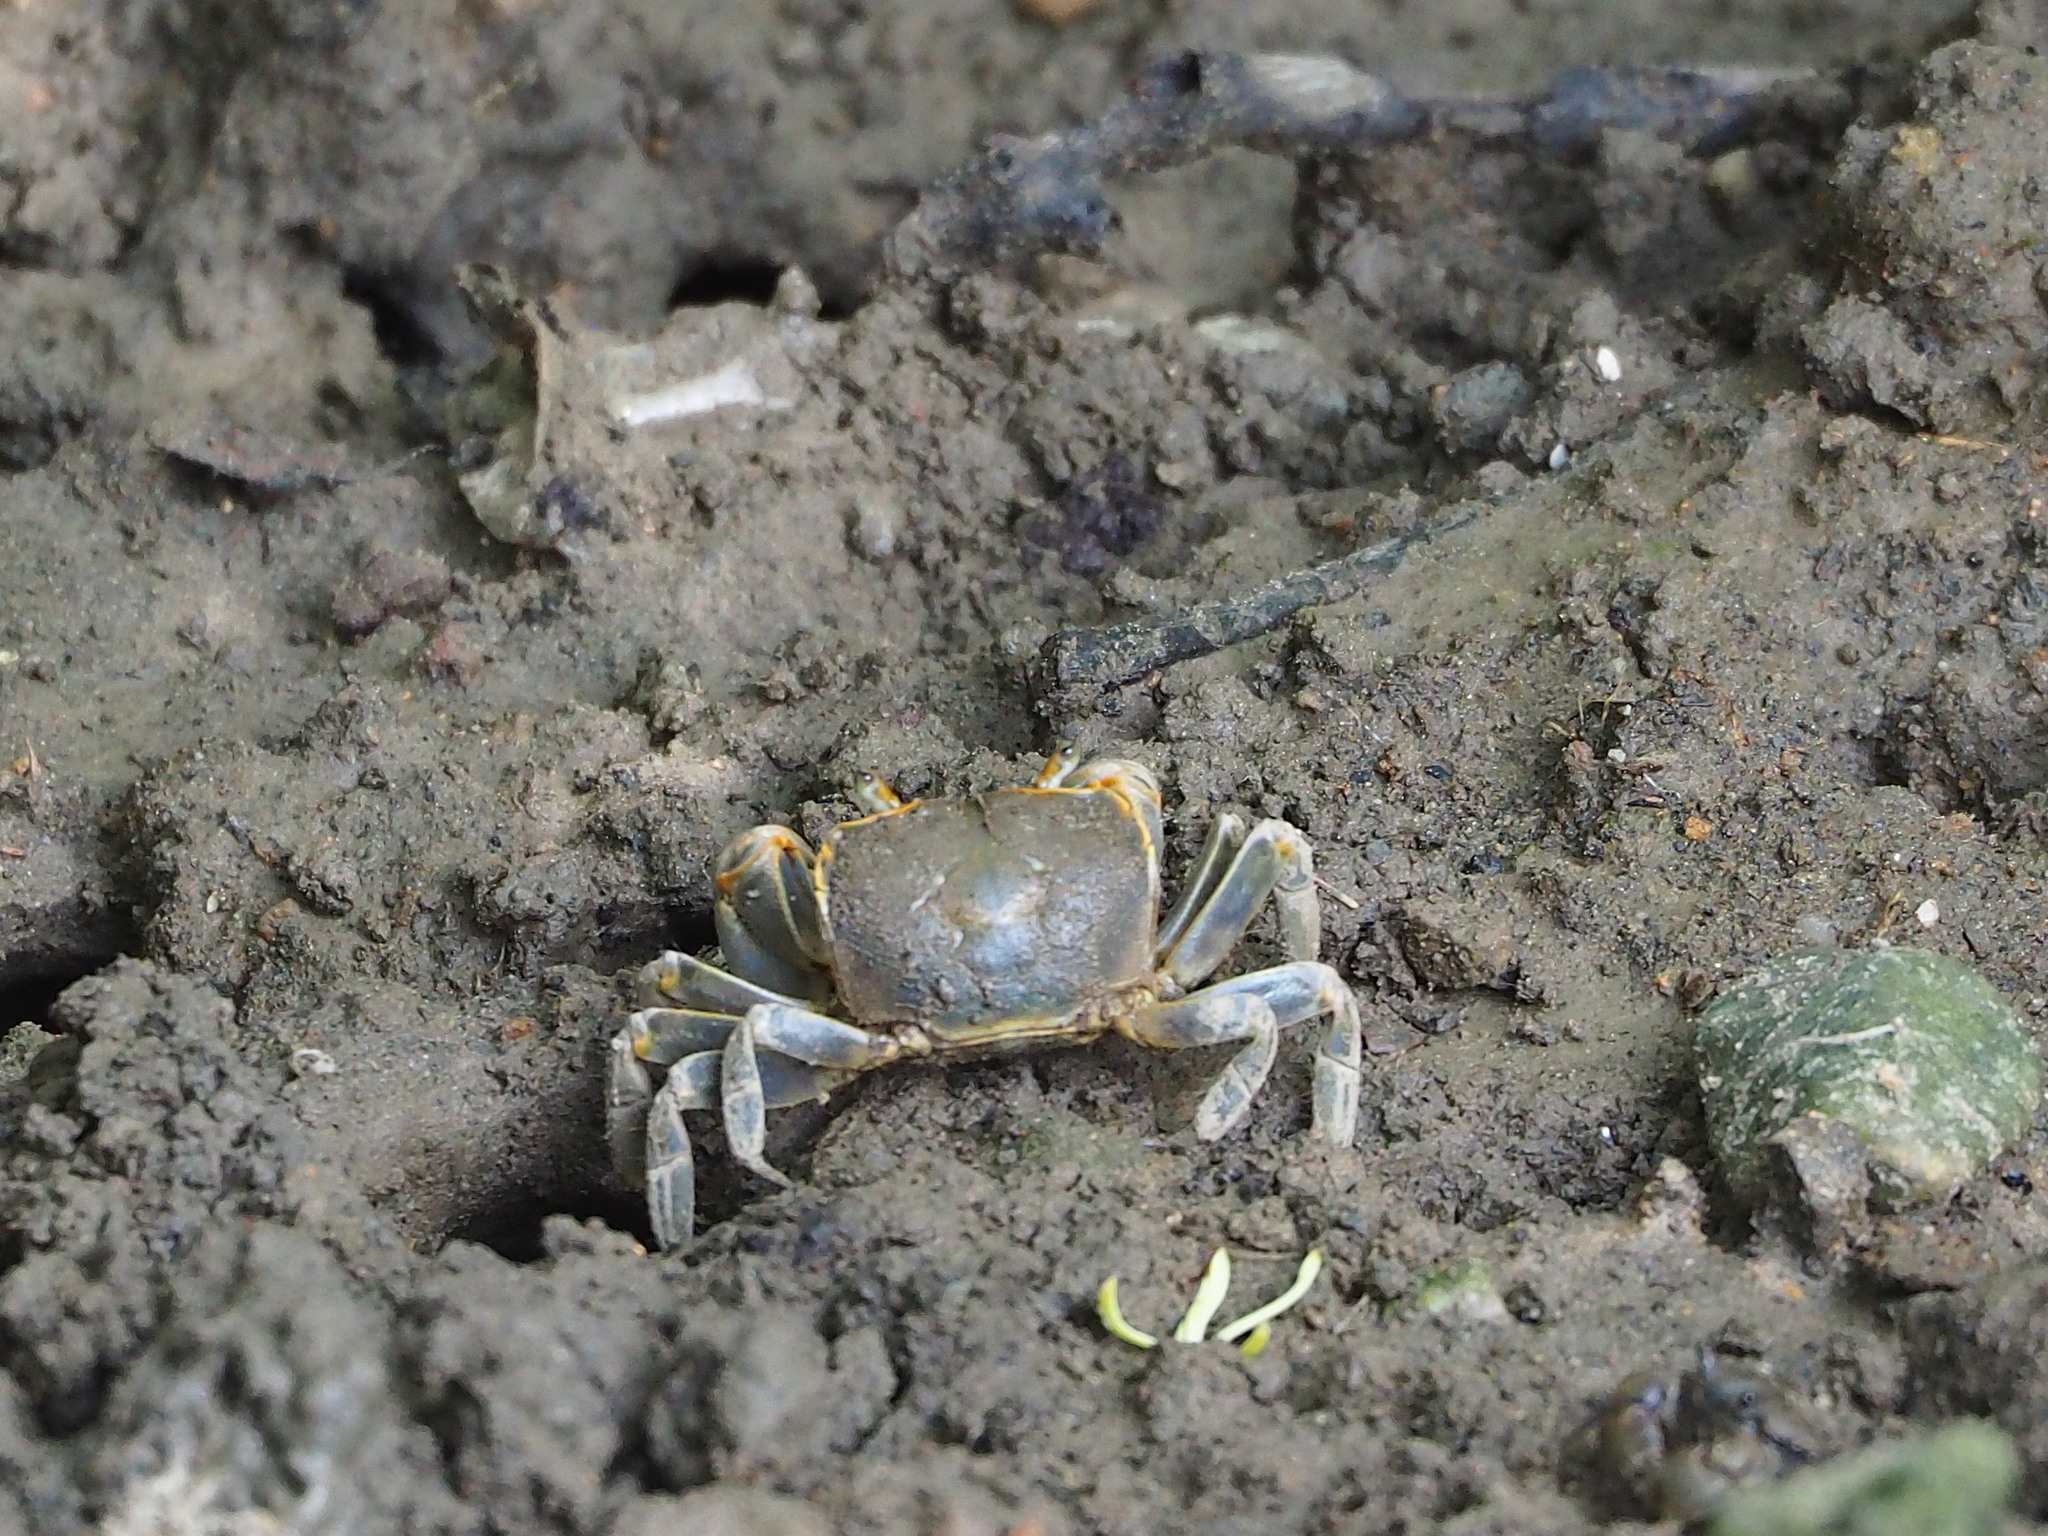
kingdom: Animalia
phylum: Arthropoda
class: Malacostraca
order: Decapoda
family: Varunidae
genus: Chasmagnathus
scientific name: Chasmagnathus convexus
